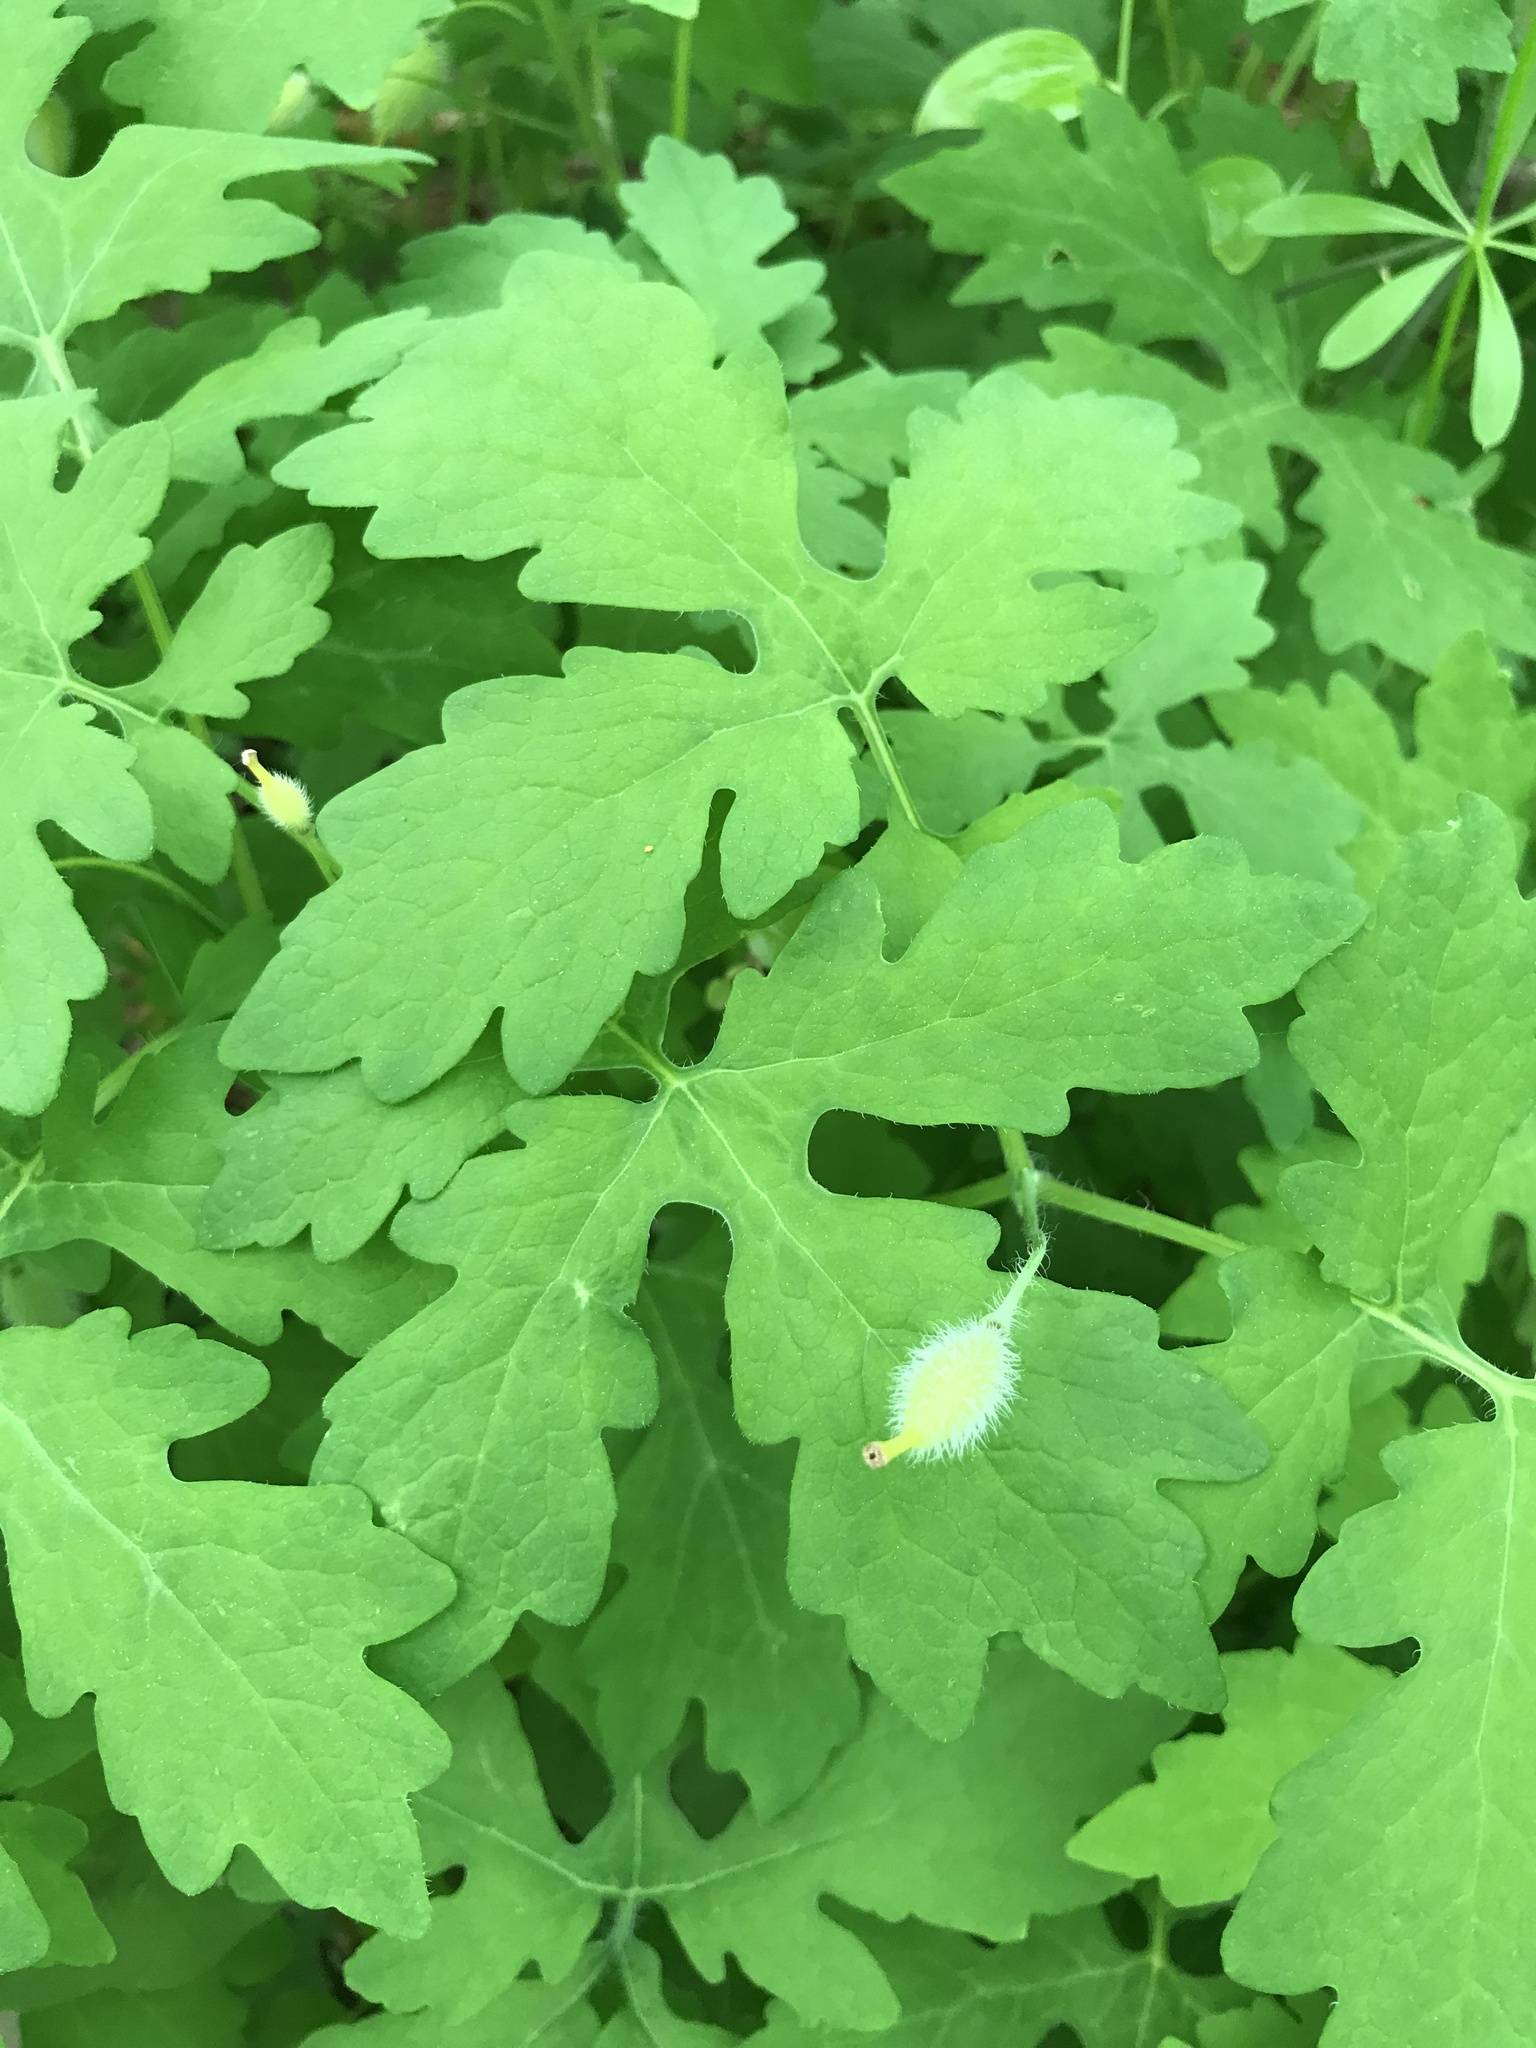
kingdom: Plantae
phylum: Tracheophyta
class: Magnoliopsida
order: Ranunculales
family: Papaveraceae
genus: Stylophorum
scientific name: Stylophorum diphyllum
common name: Celandine poppy
